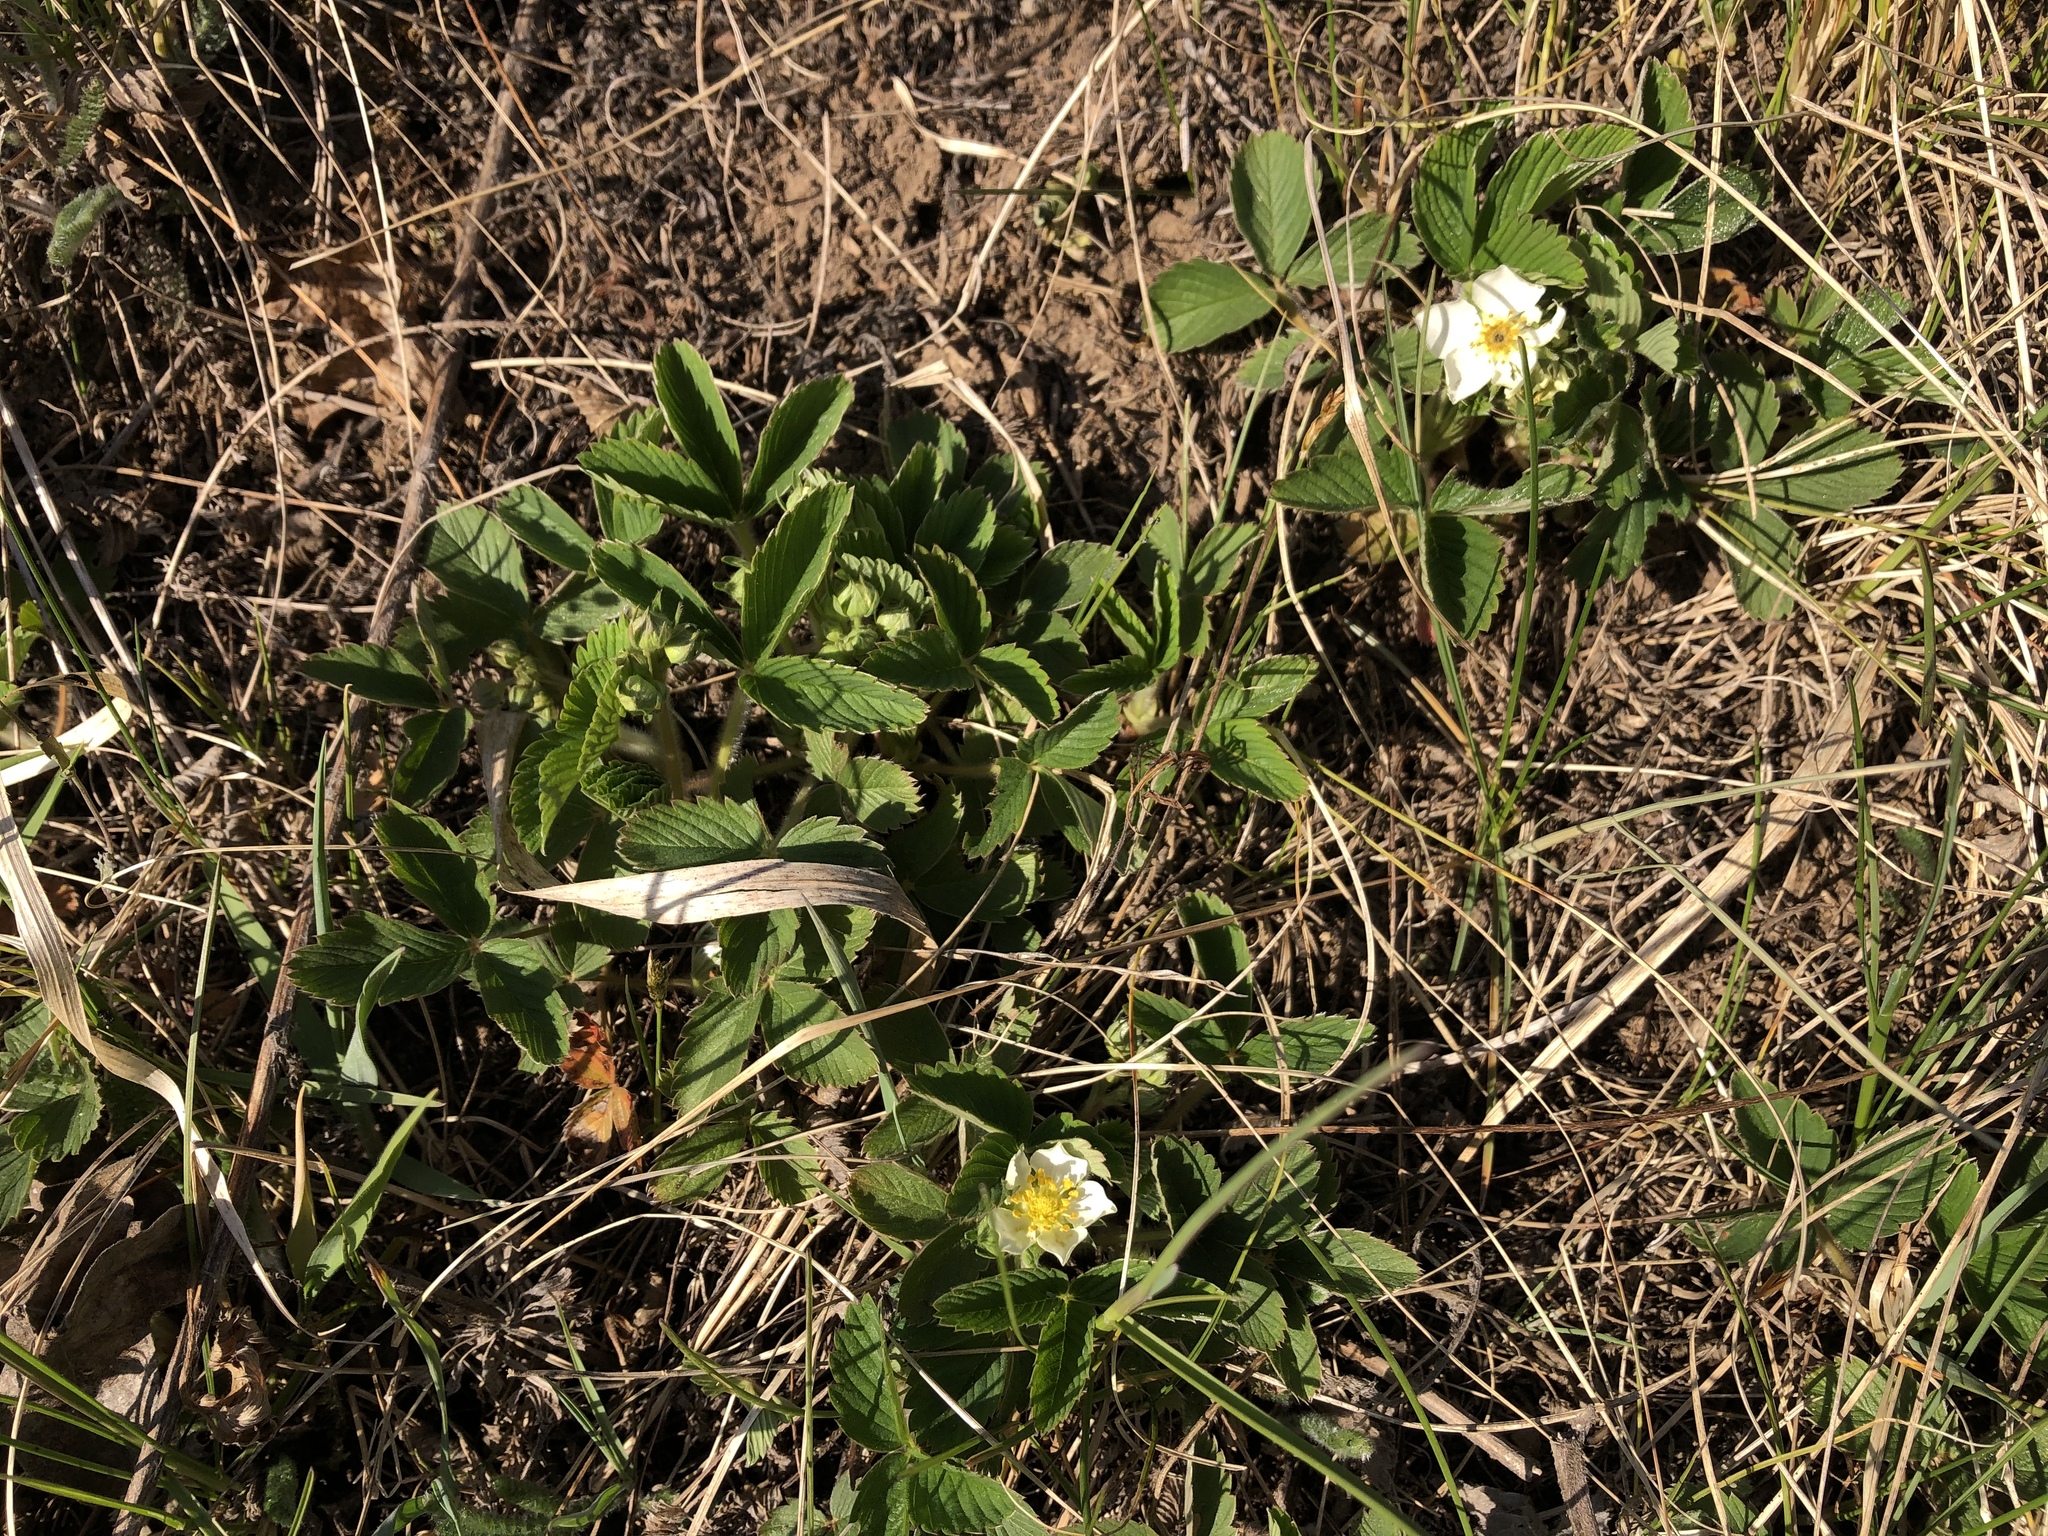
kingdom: Plantae
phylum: Tracheophyta
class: Magnoliopsida
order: Rosales
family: Rosaceae
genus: Fragaria
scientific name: Fragaria viridis
